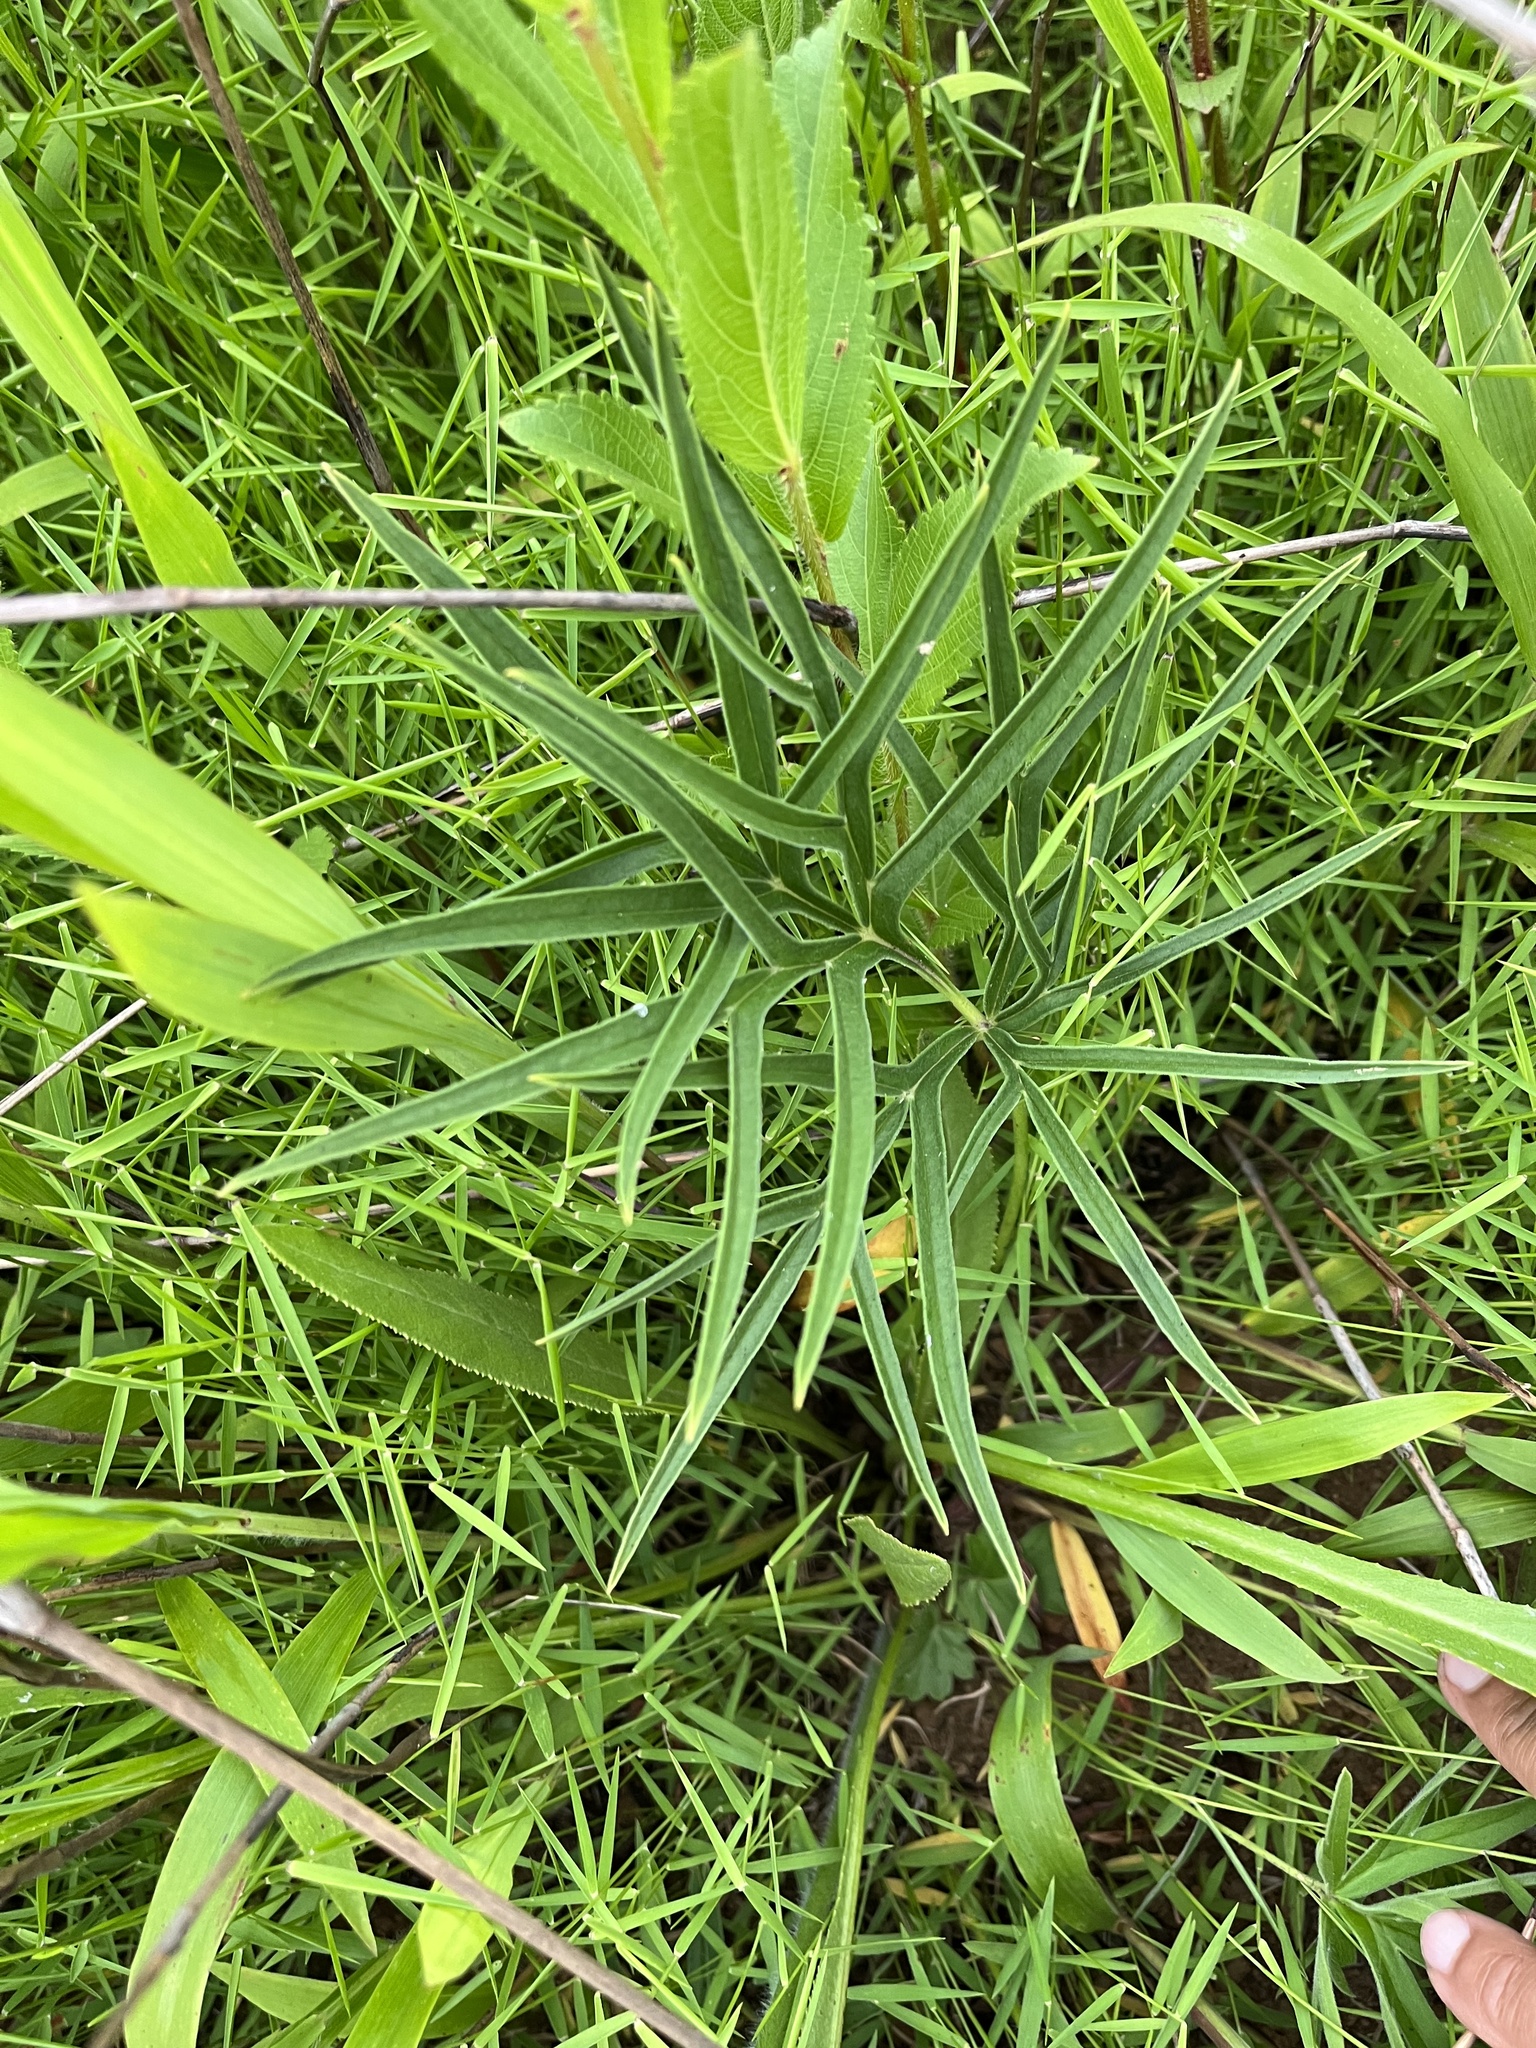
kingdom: Plantae
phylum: Tracheophyta
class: Magnoliopsida
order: Geraniales
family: Geraniaceae
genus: Pelargonium
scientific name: Pelargonium luridum
